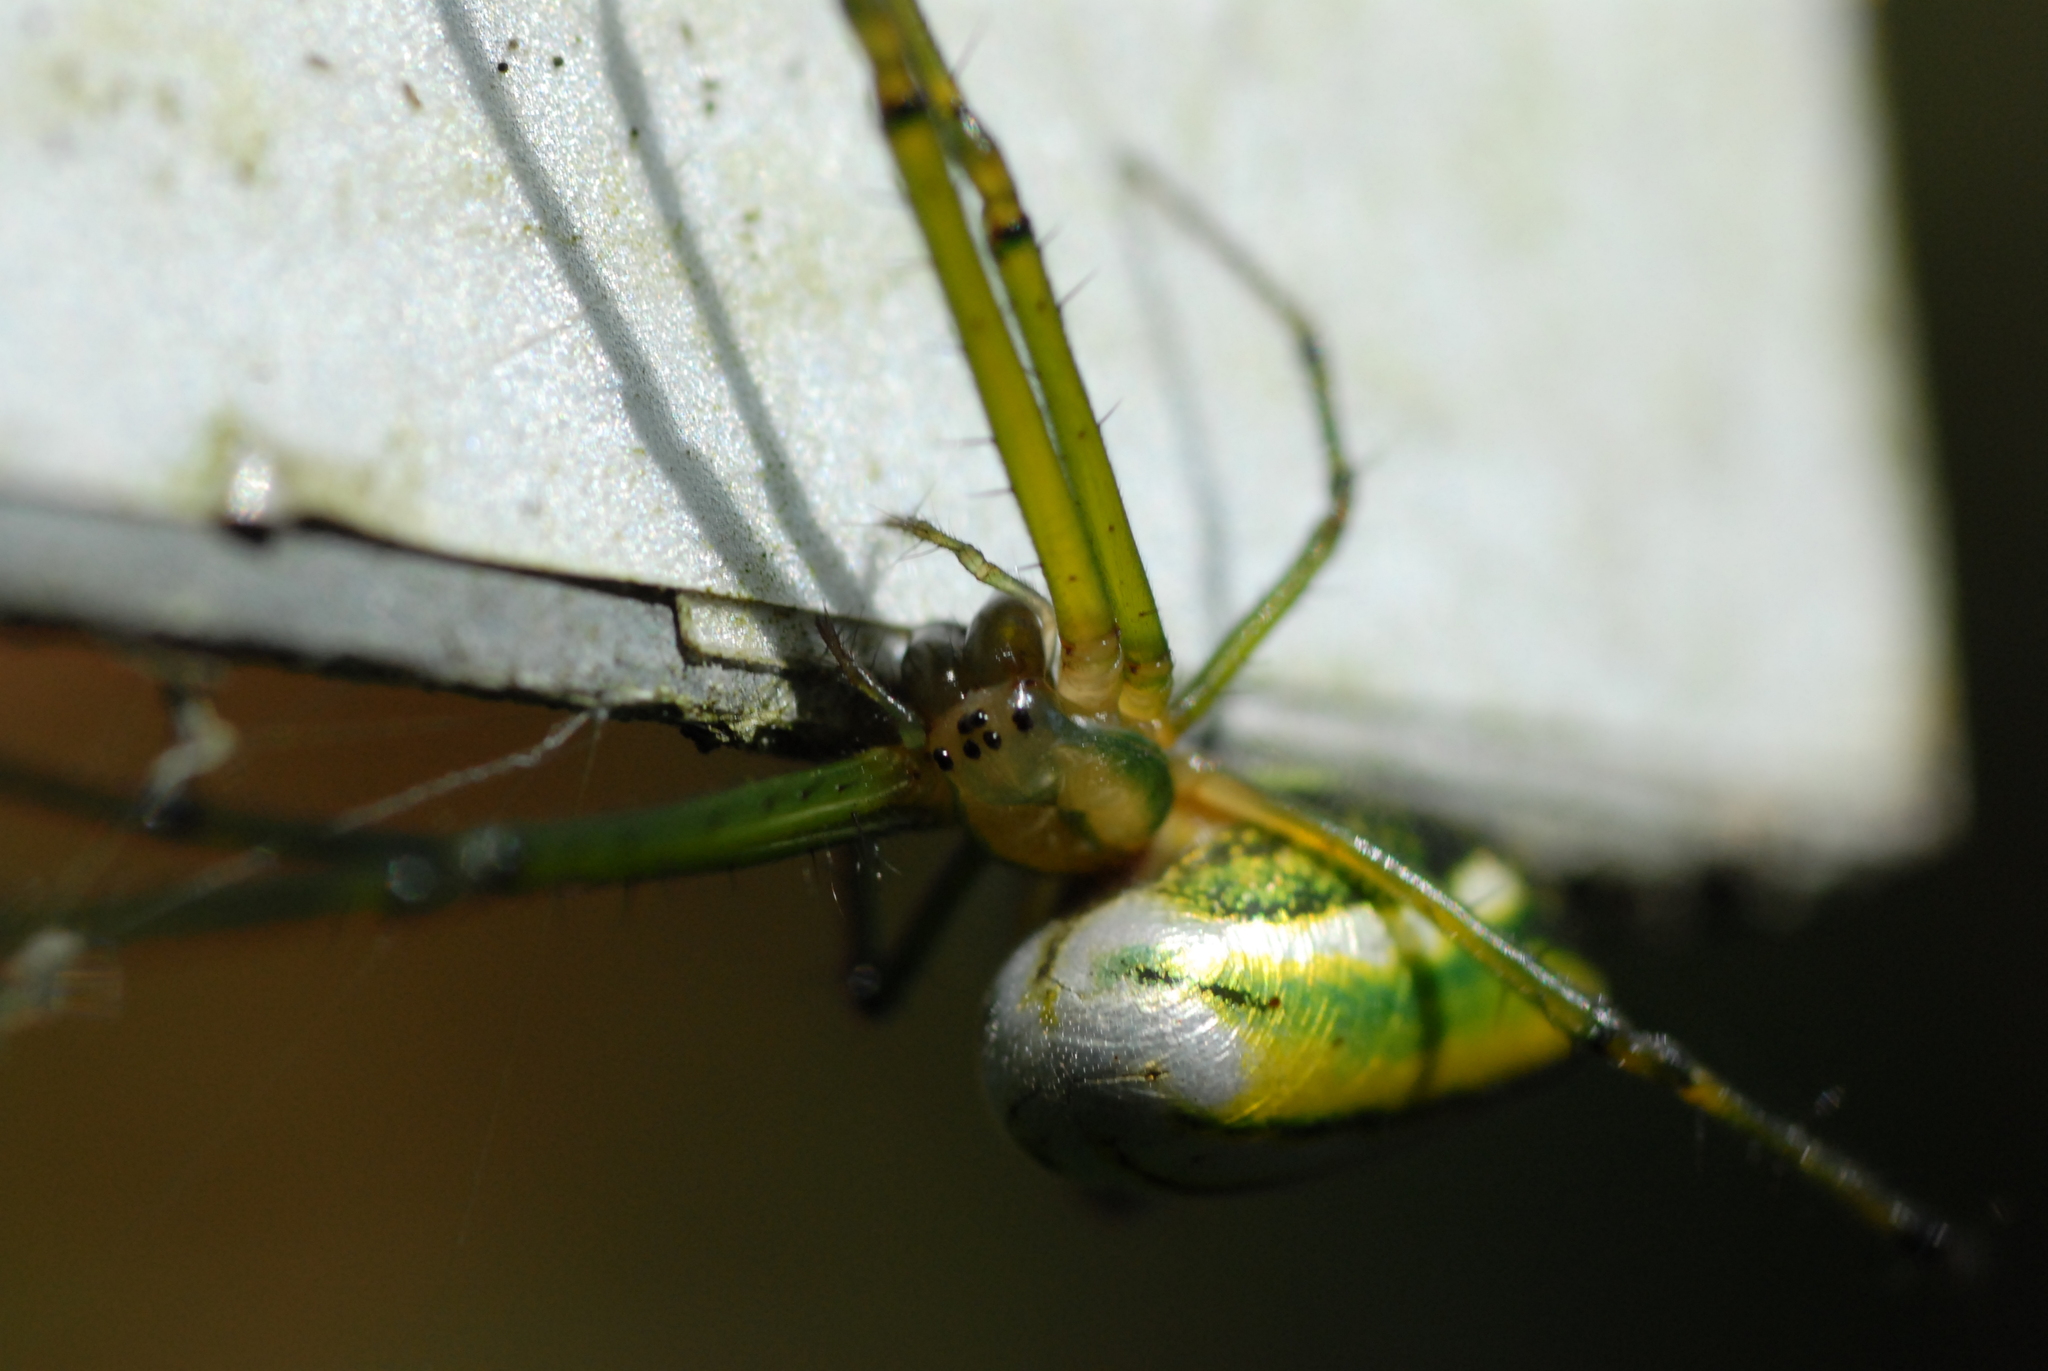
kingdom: Animalia
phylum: Arthropoda
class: Arachnida
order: Araneae
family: Tetragnathidae
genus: Leucauge
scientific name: Leucauge celebesiana
